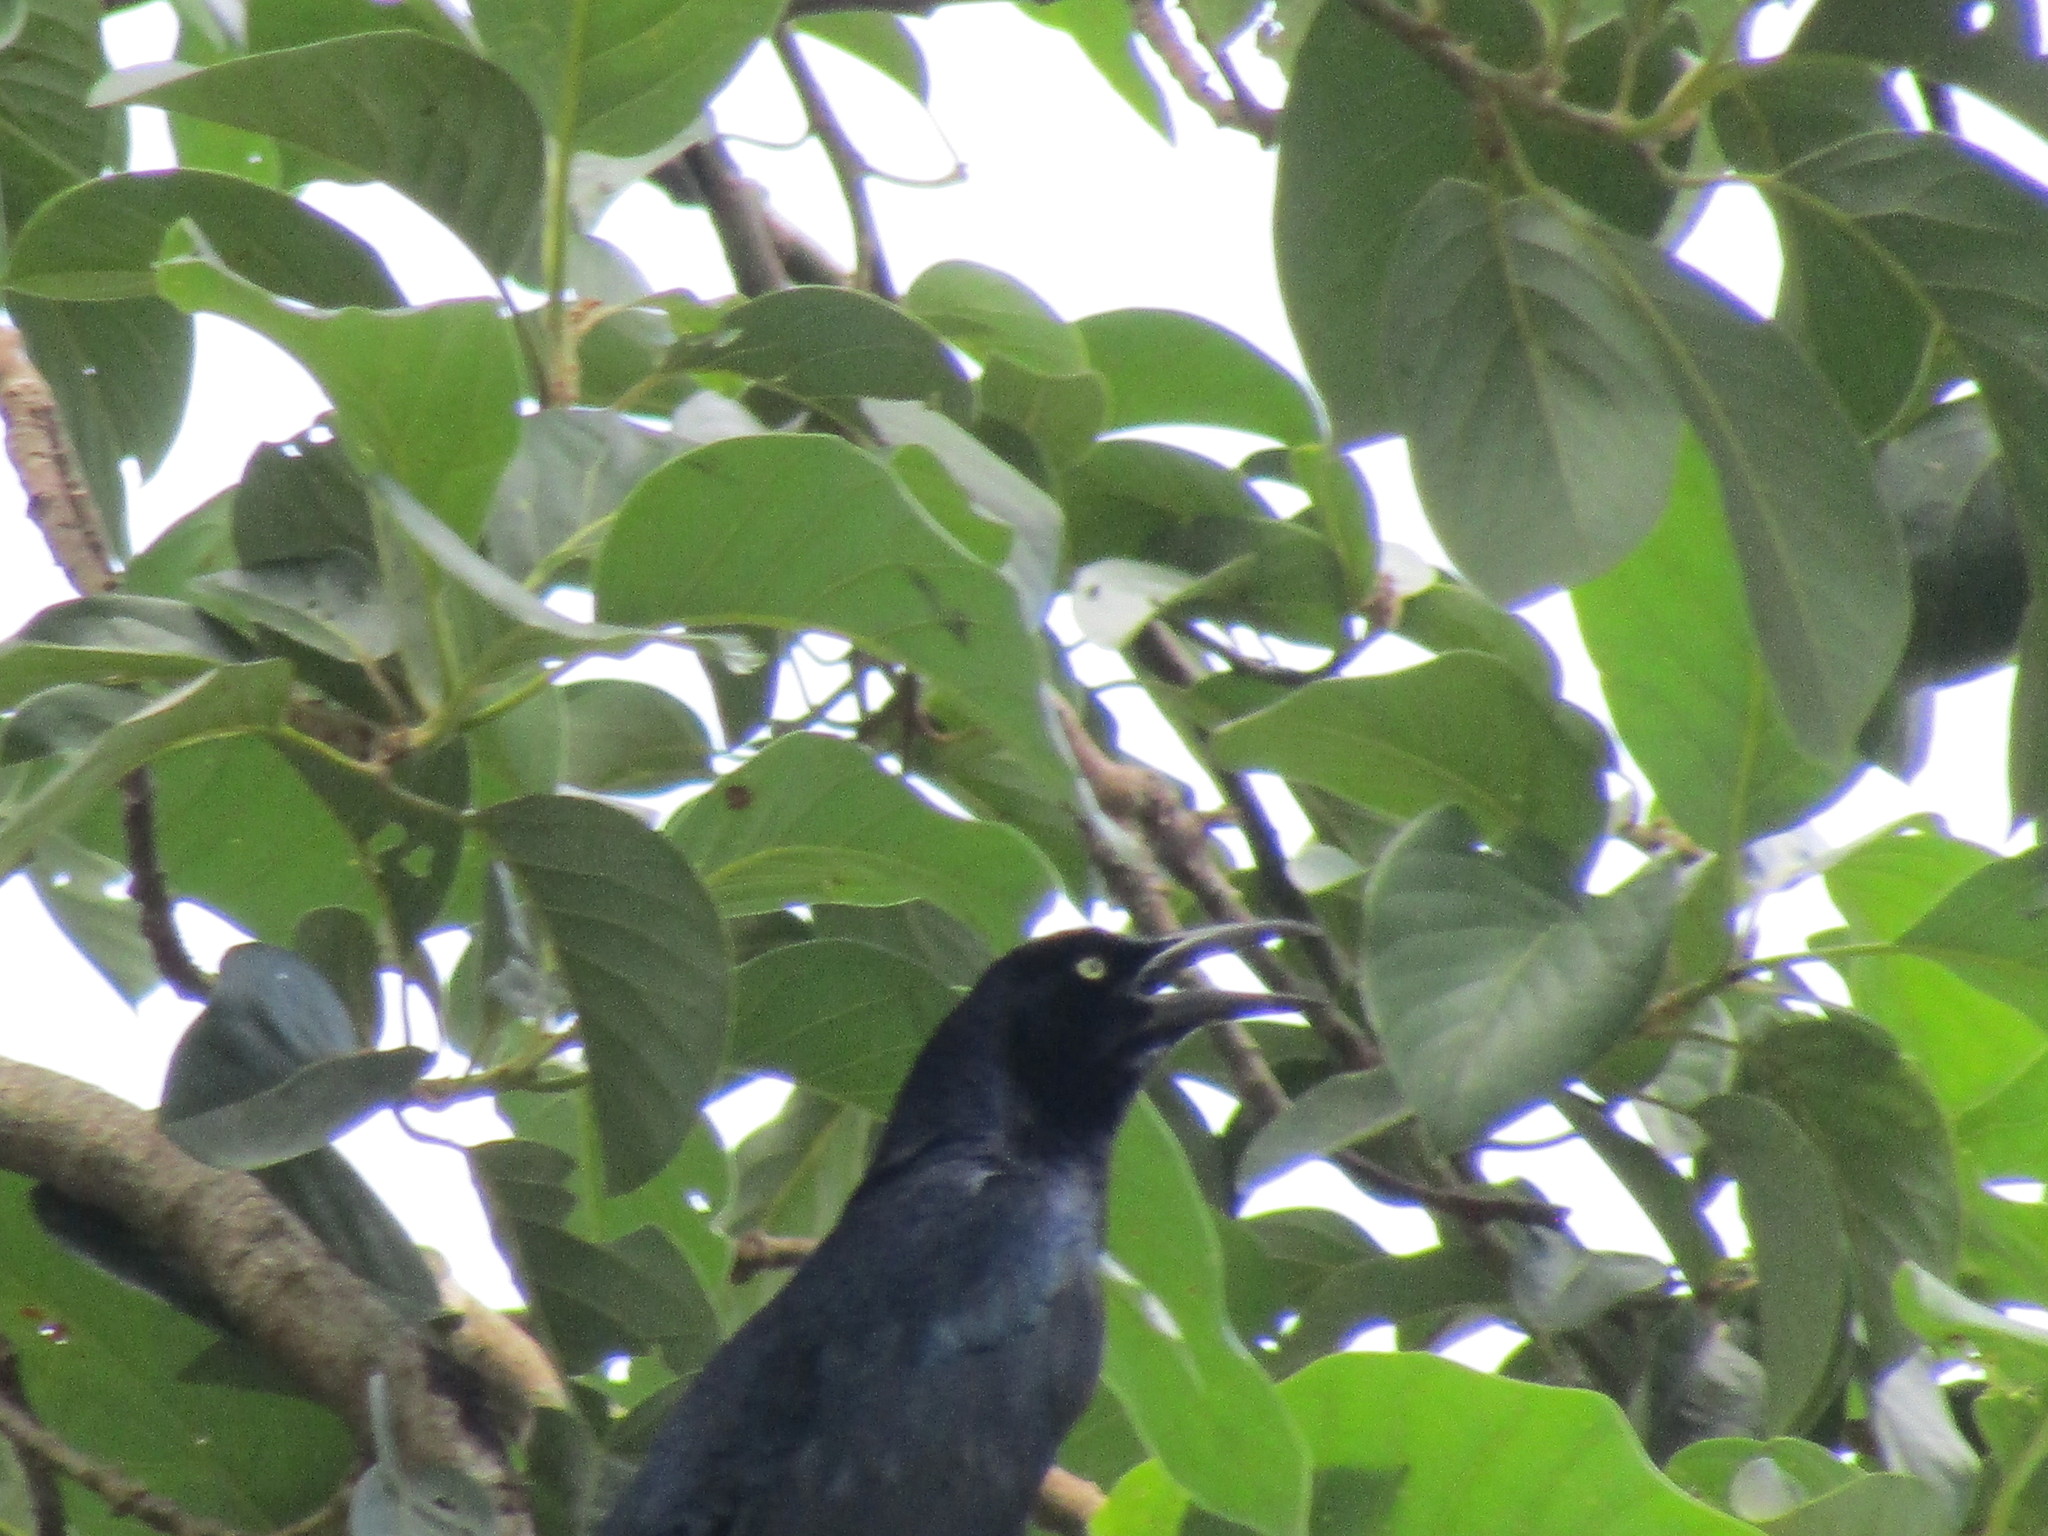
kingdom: Animalia
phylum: Chordata
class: Aves
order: Passeriformes
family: Icteridae
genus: Quiscalus
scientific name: Quiscalus mexicanus
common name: Great-tailed grackle
